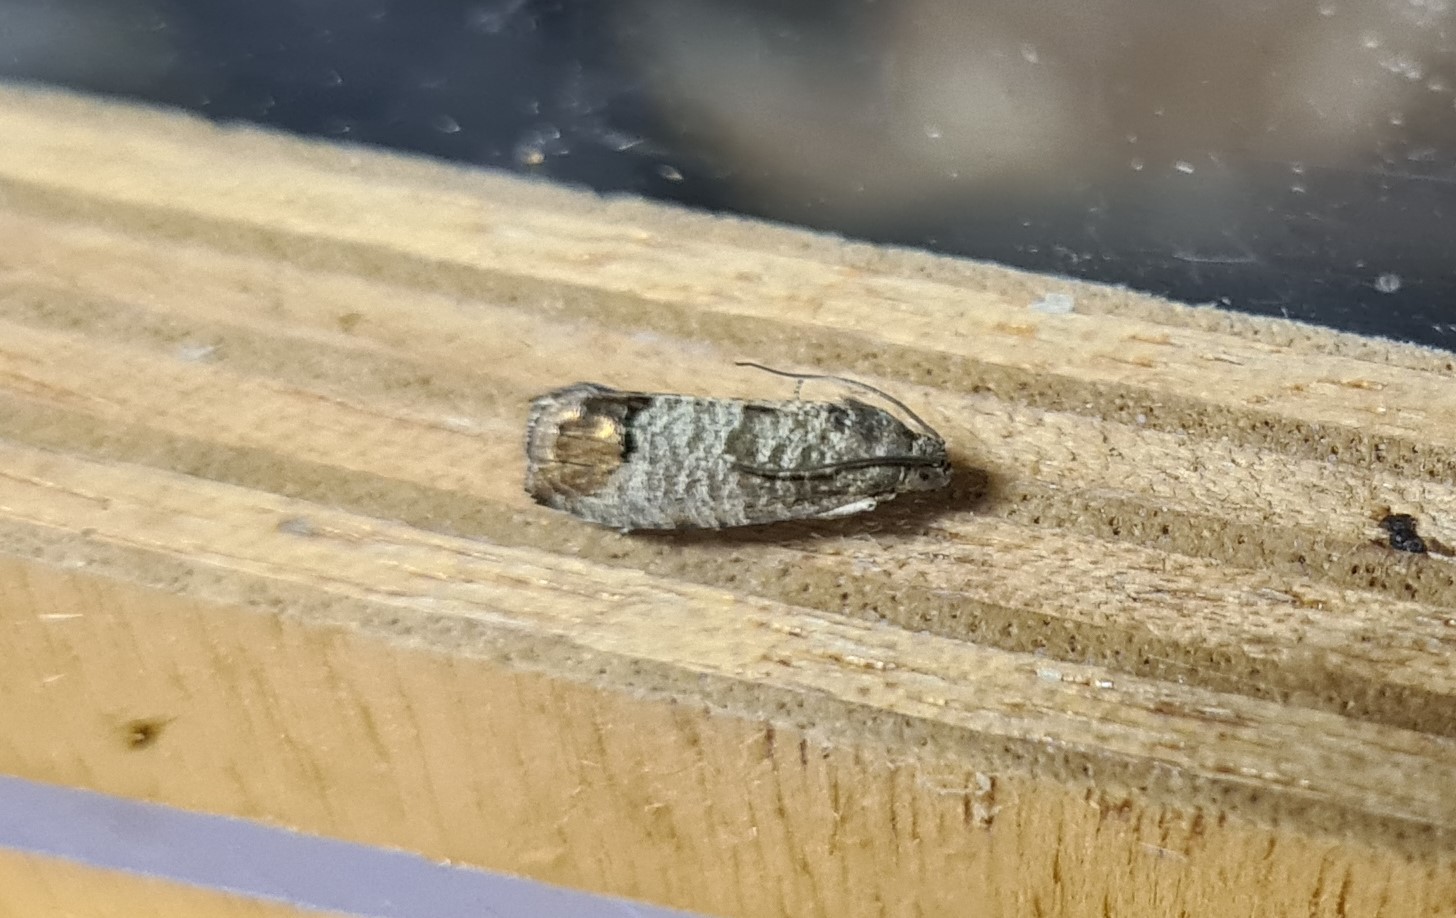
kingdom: Animalia
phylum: Arthropoda
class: Insecta
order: Lepidoptera
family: Tortricidae
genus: Cydia
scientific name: Cydia pomonella
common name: Codling moth
